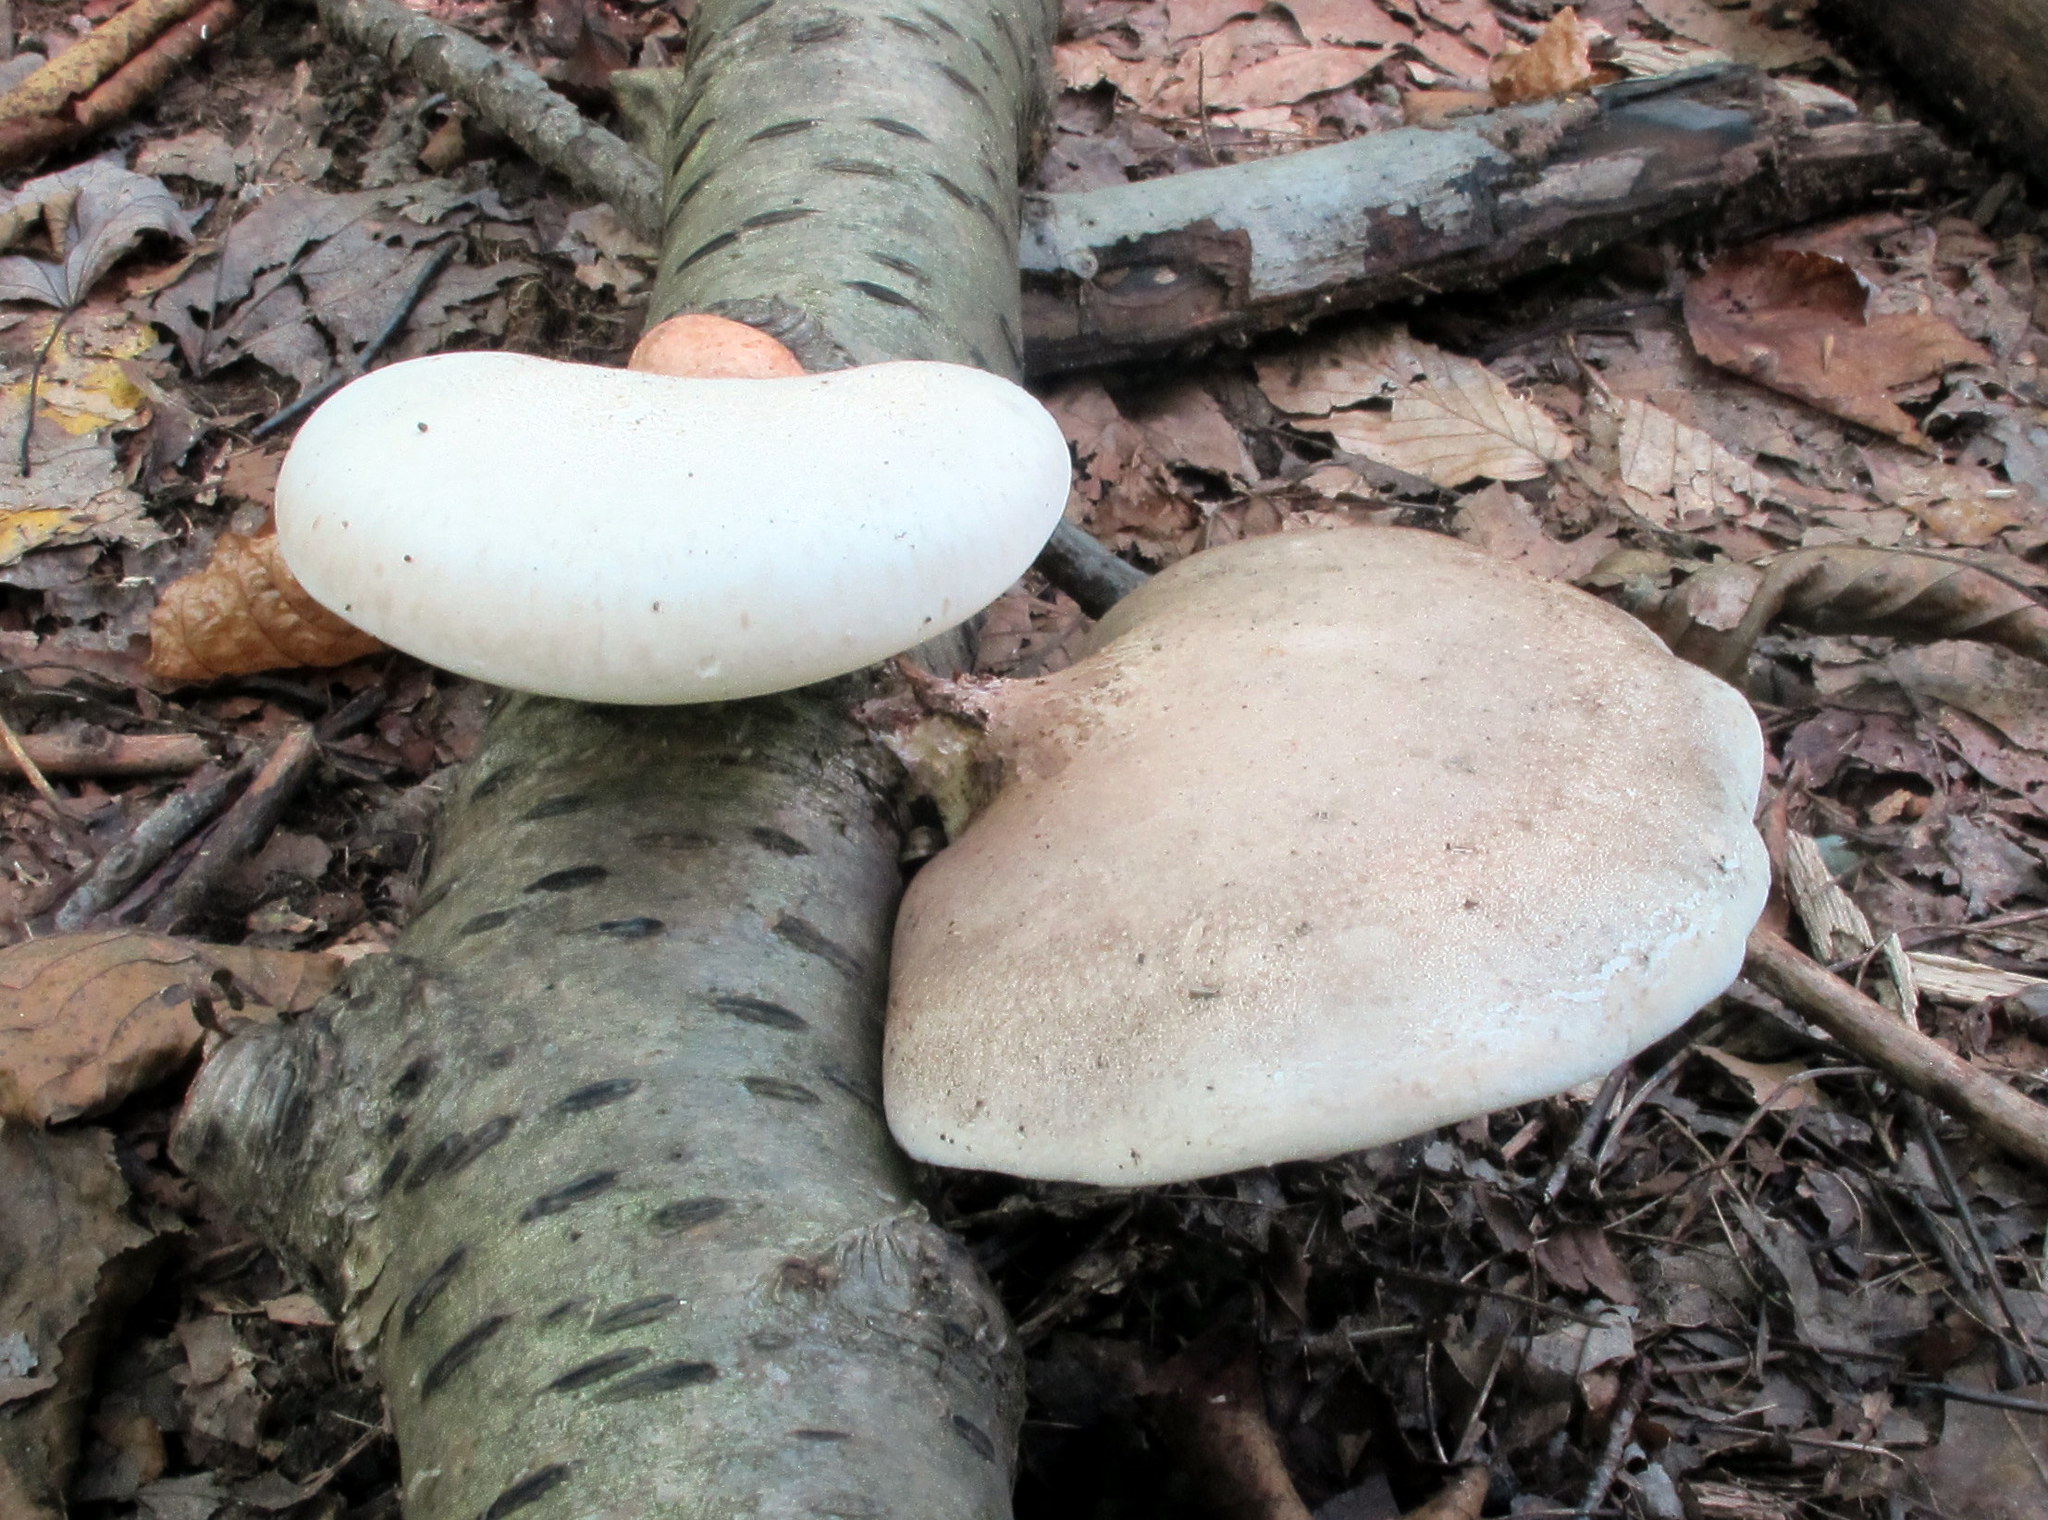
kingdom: Fungi
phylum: Basidiomycota
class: Agaricomycetes
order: Polyporales
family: Fomitopsidaceae
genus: Fomitopsis
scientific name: Fomitopsis betulina
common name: Birch polypore
